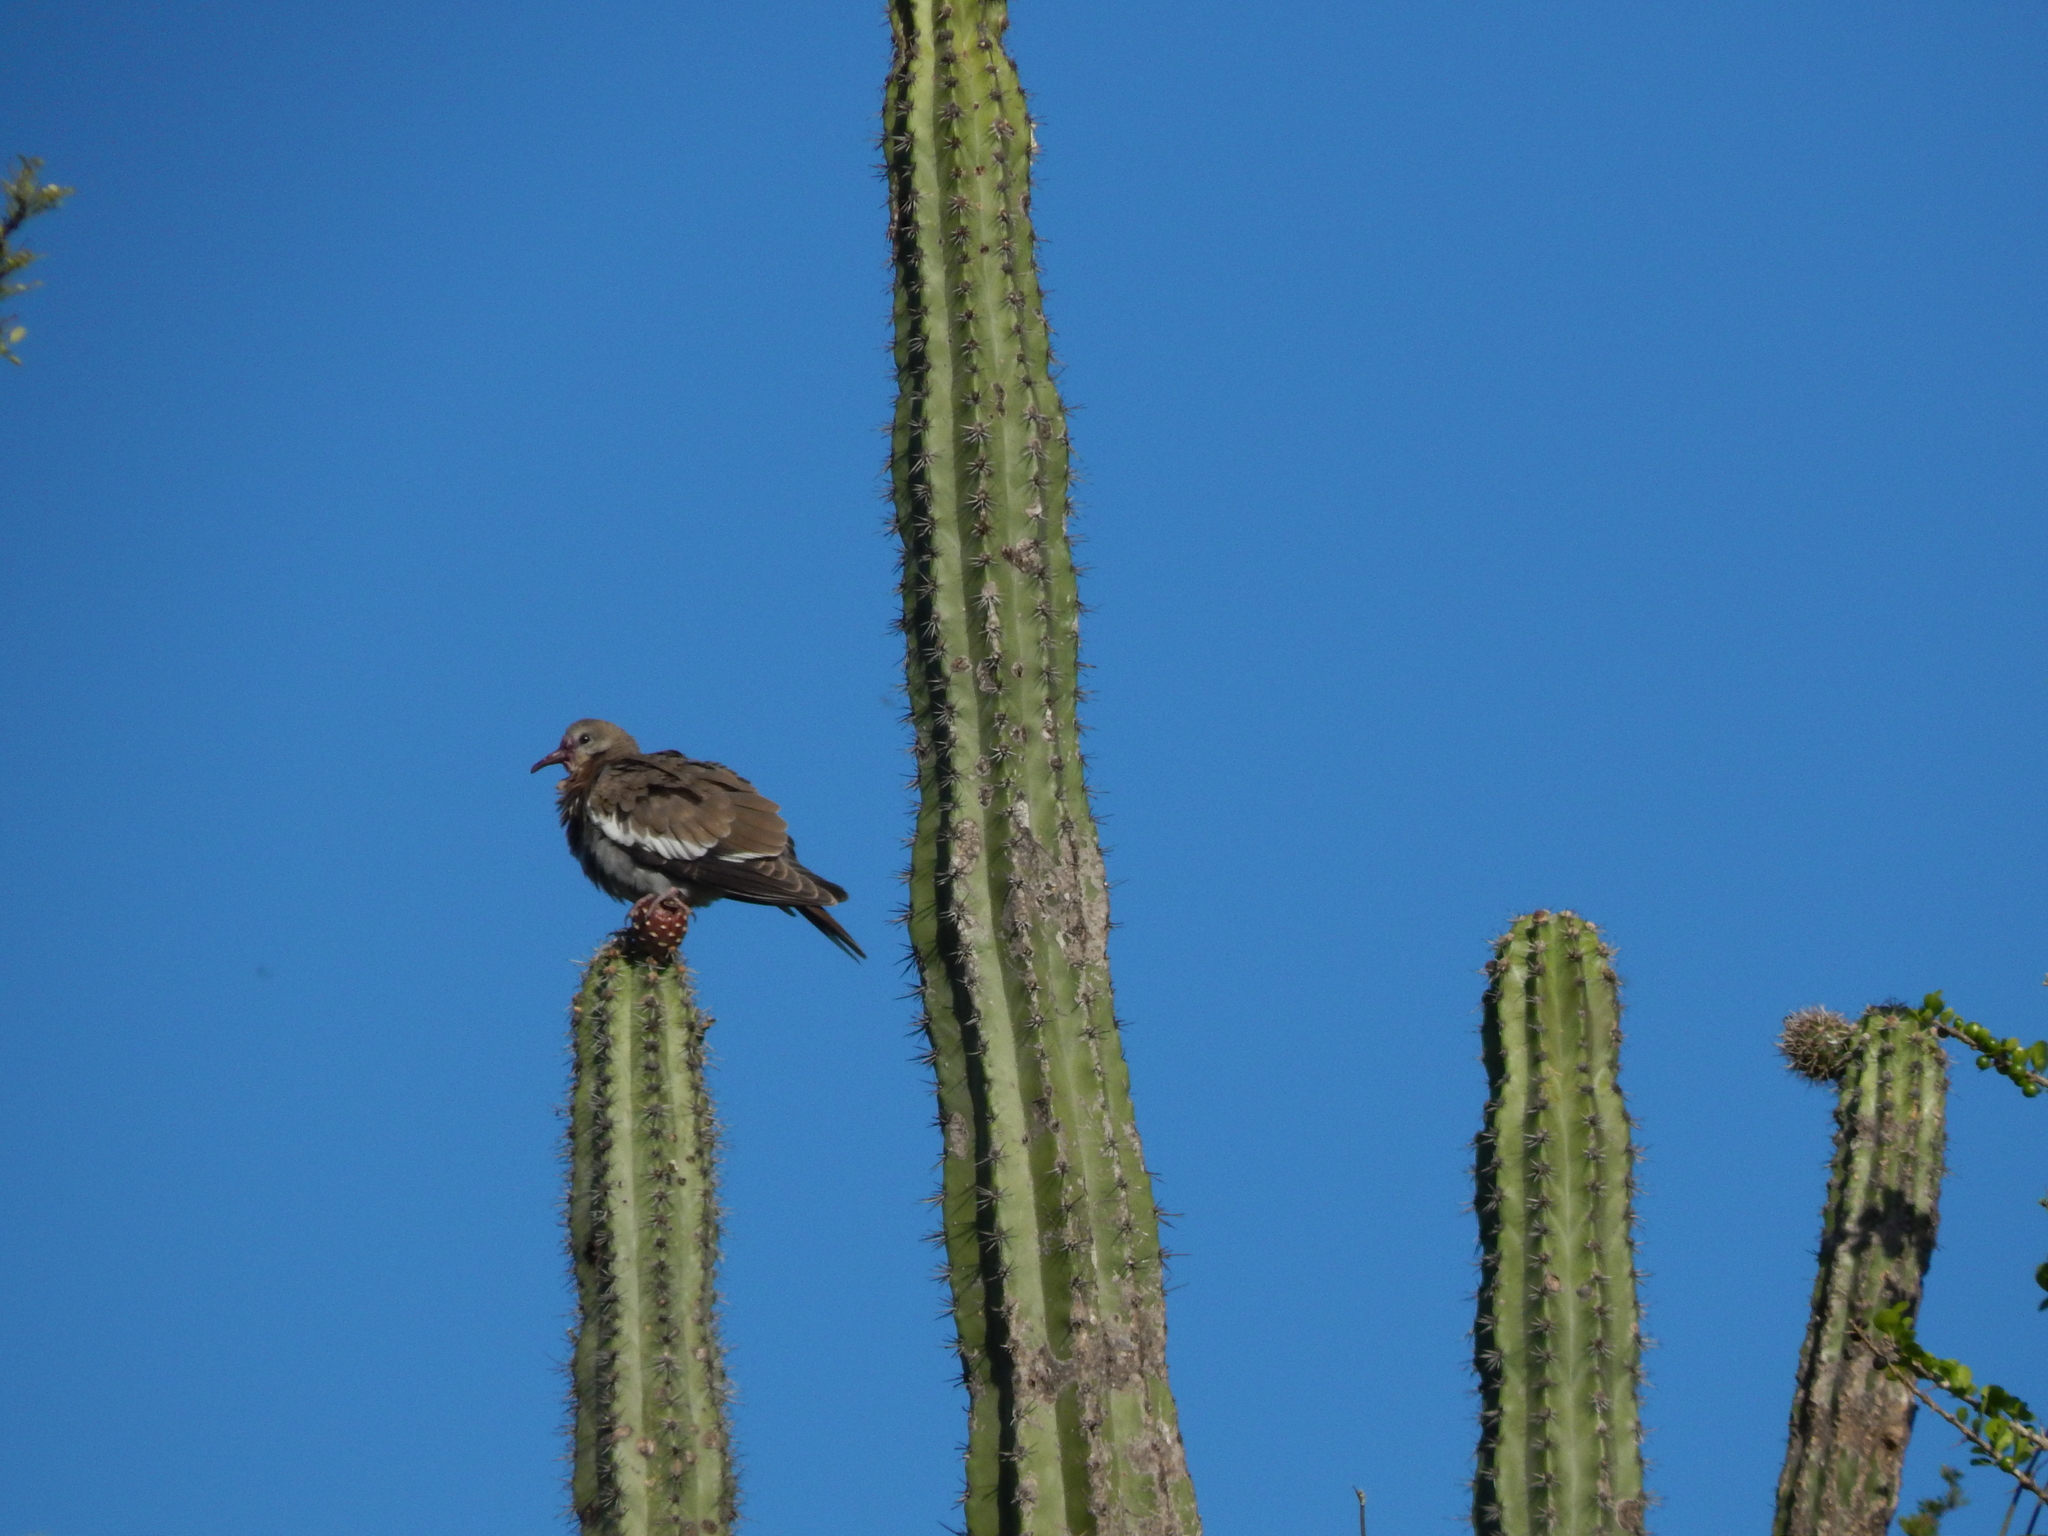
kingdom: Animalia
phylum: Chordata
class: Aves
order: Columbiformes
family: Columbidae
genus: Zenaida
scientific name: Zenaida asiatica
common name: White-winged dove
